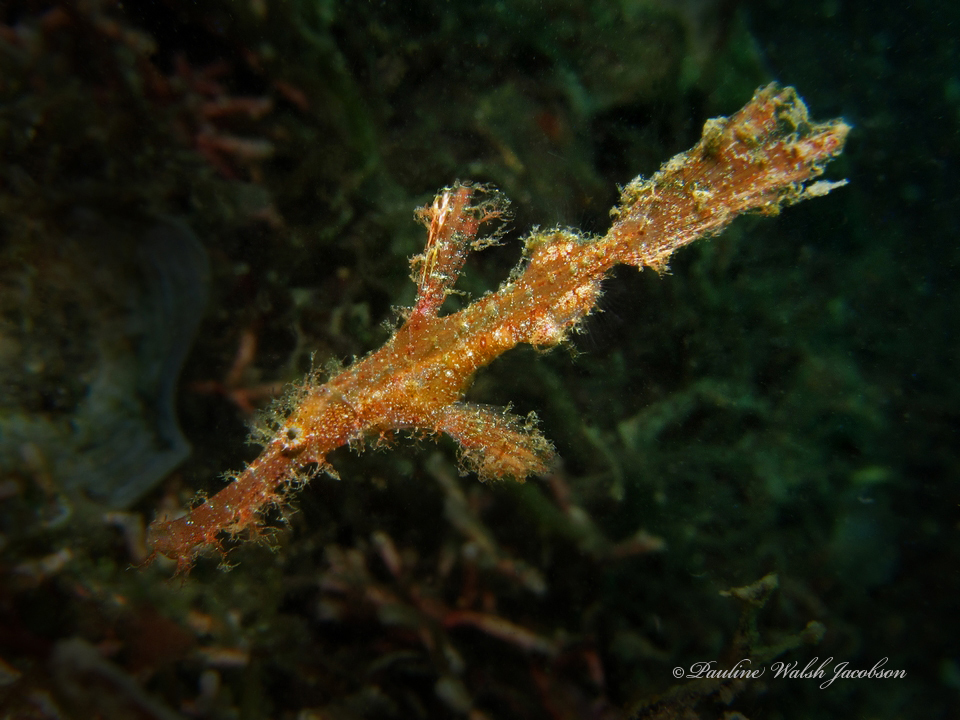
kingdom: Animalia
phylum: Chordata
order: Syngnathiformes
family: Solenostomidae
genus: Solenostomus
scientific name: Solenostomus paegnius
